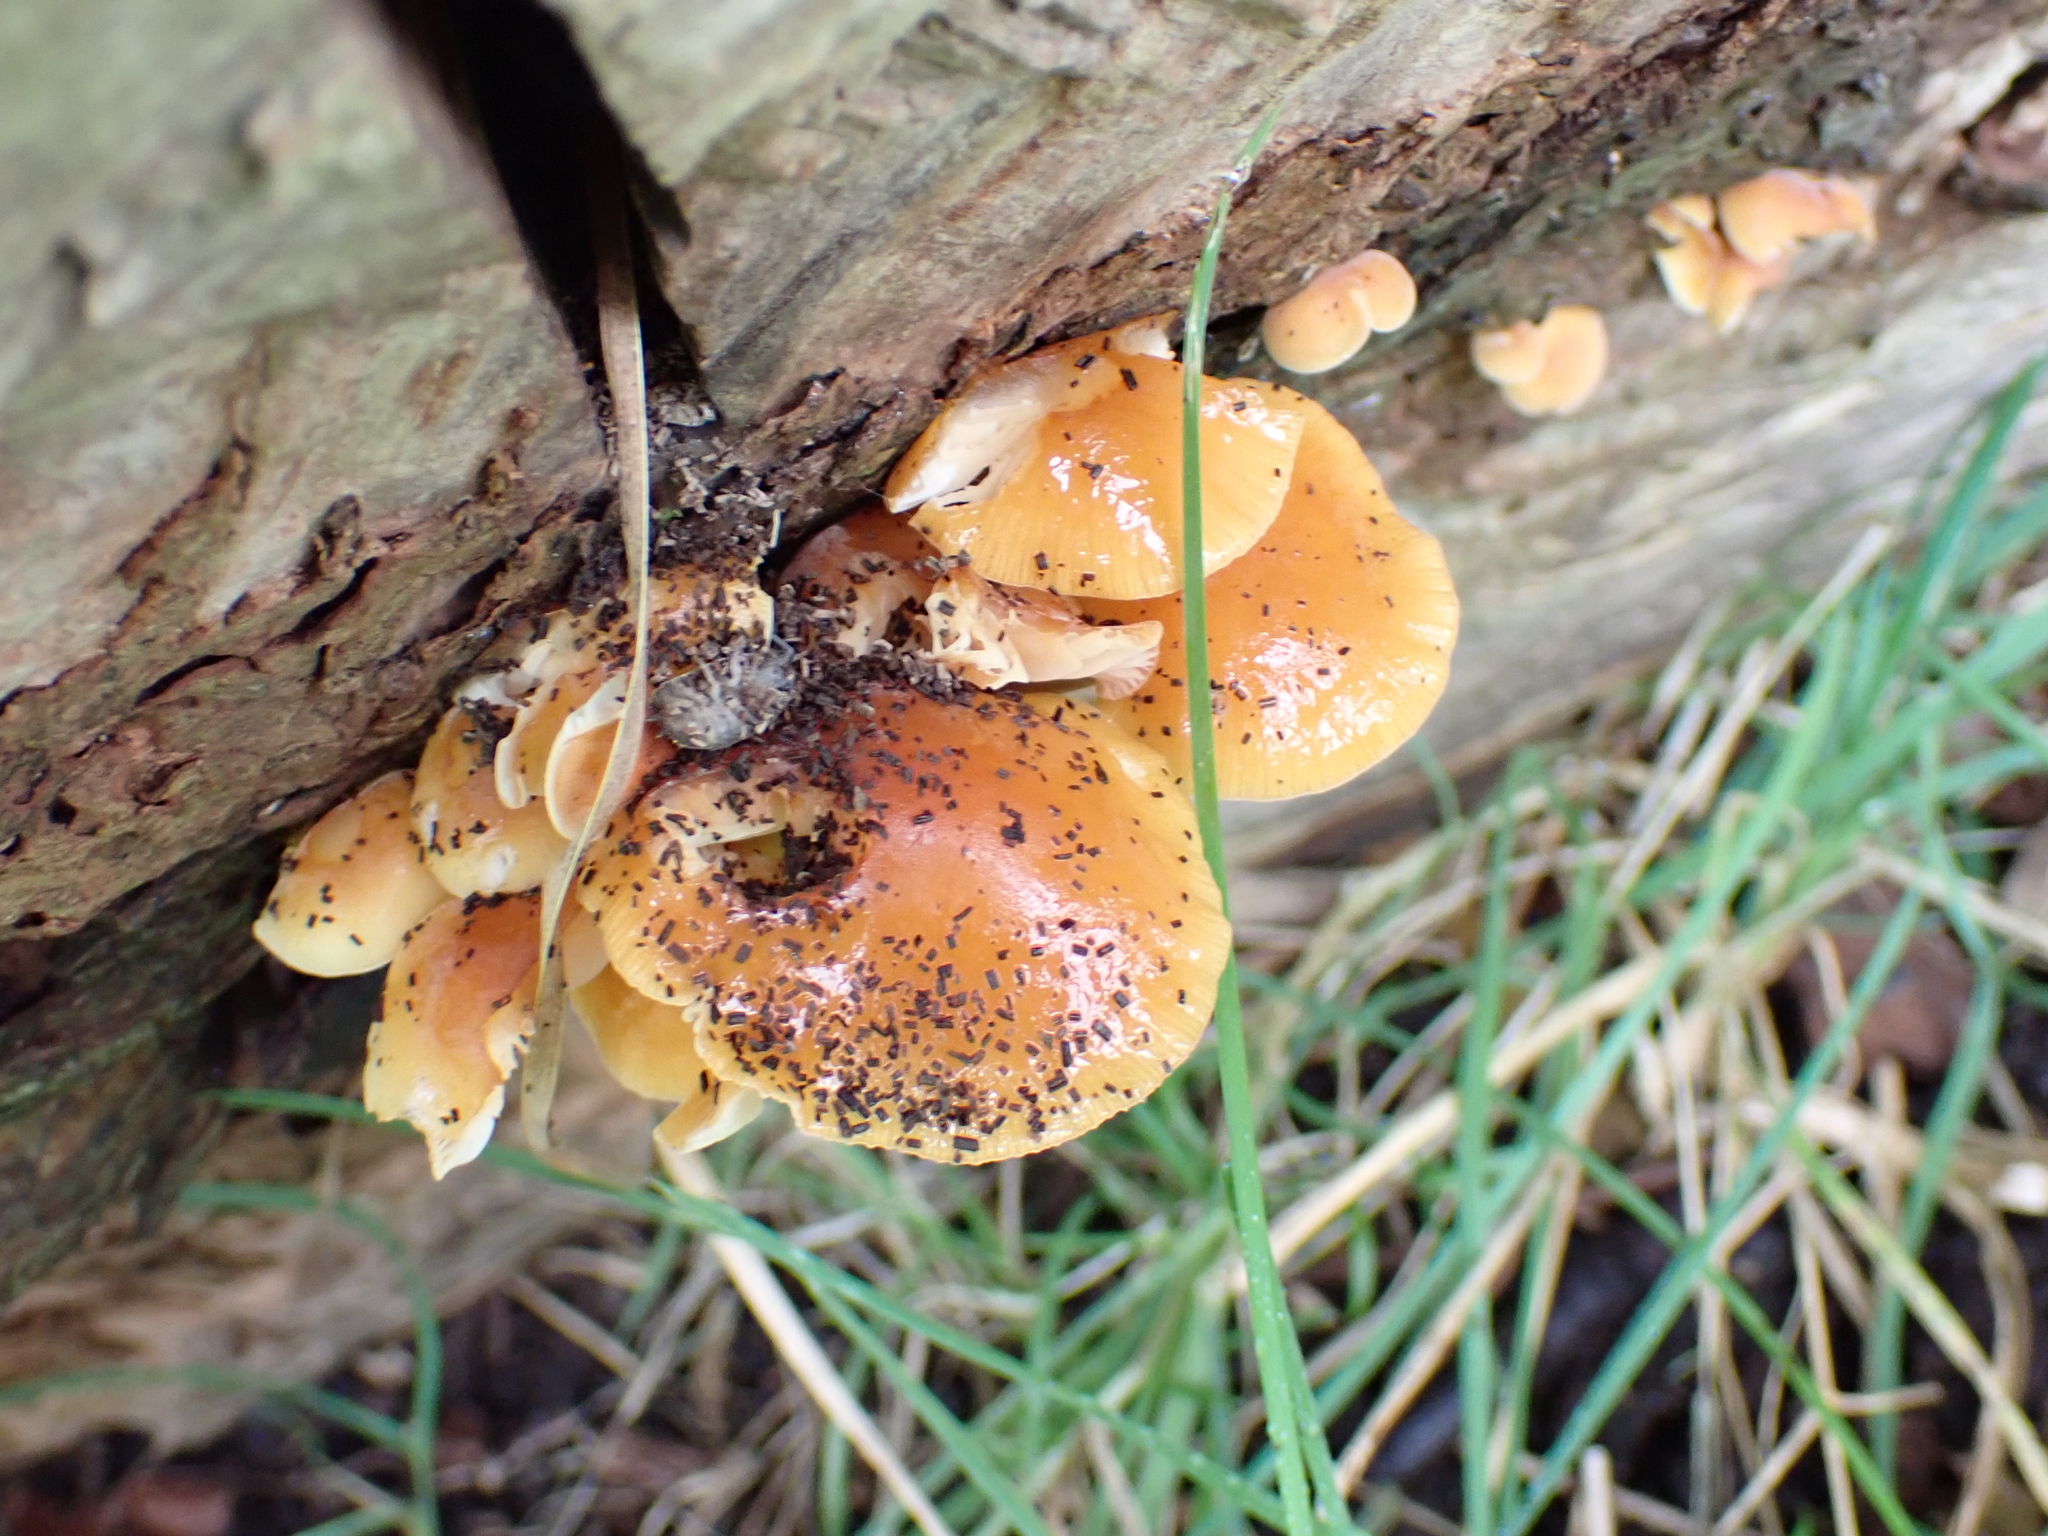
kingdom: Fungi
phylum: Basidiomycota
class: Agaricomycetes
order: Agaricales
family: Physalacriaceae
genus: Flammulina
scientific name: Flammulina
